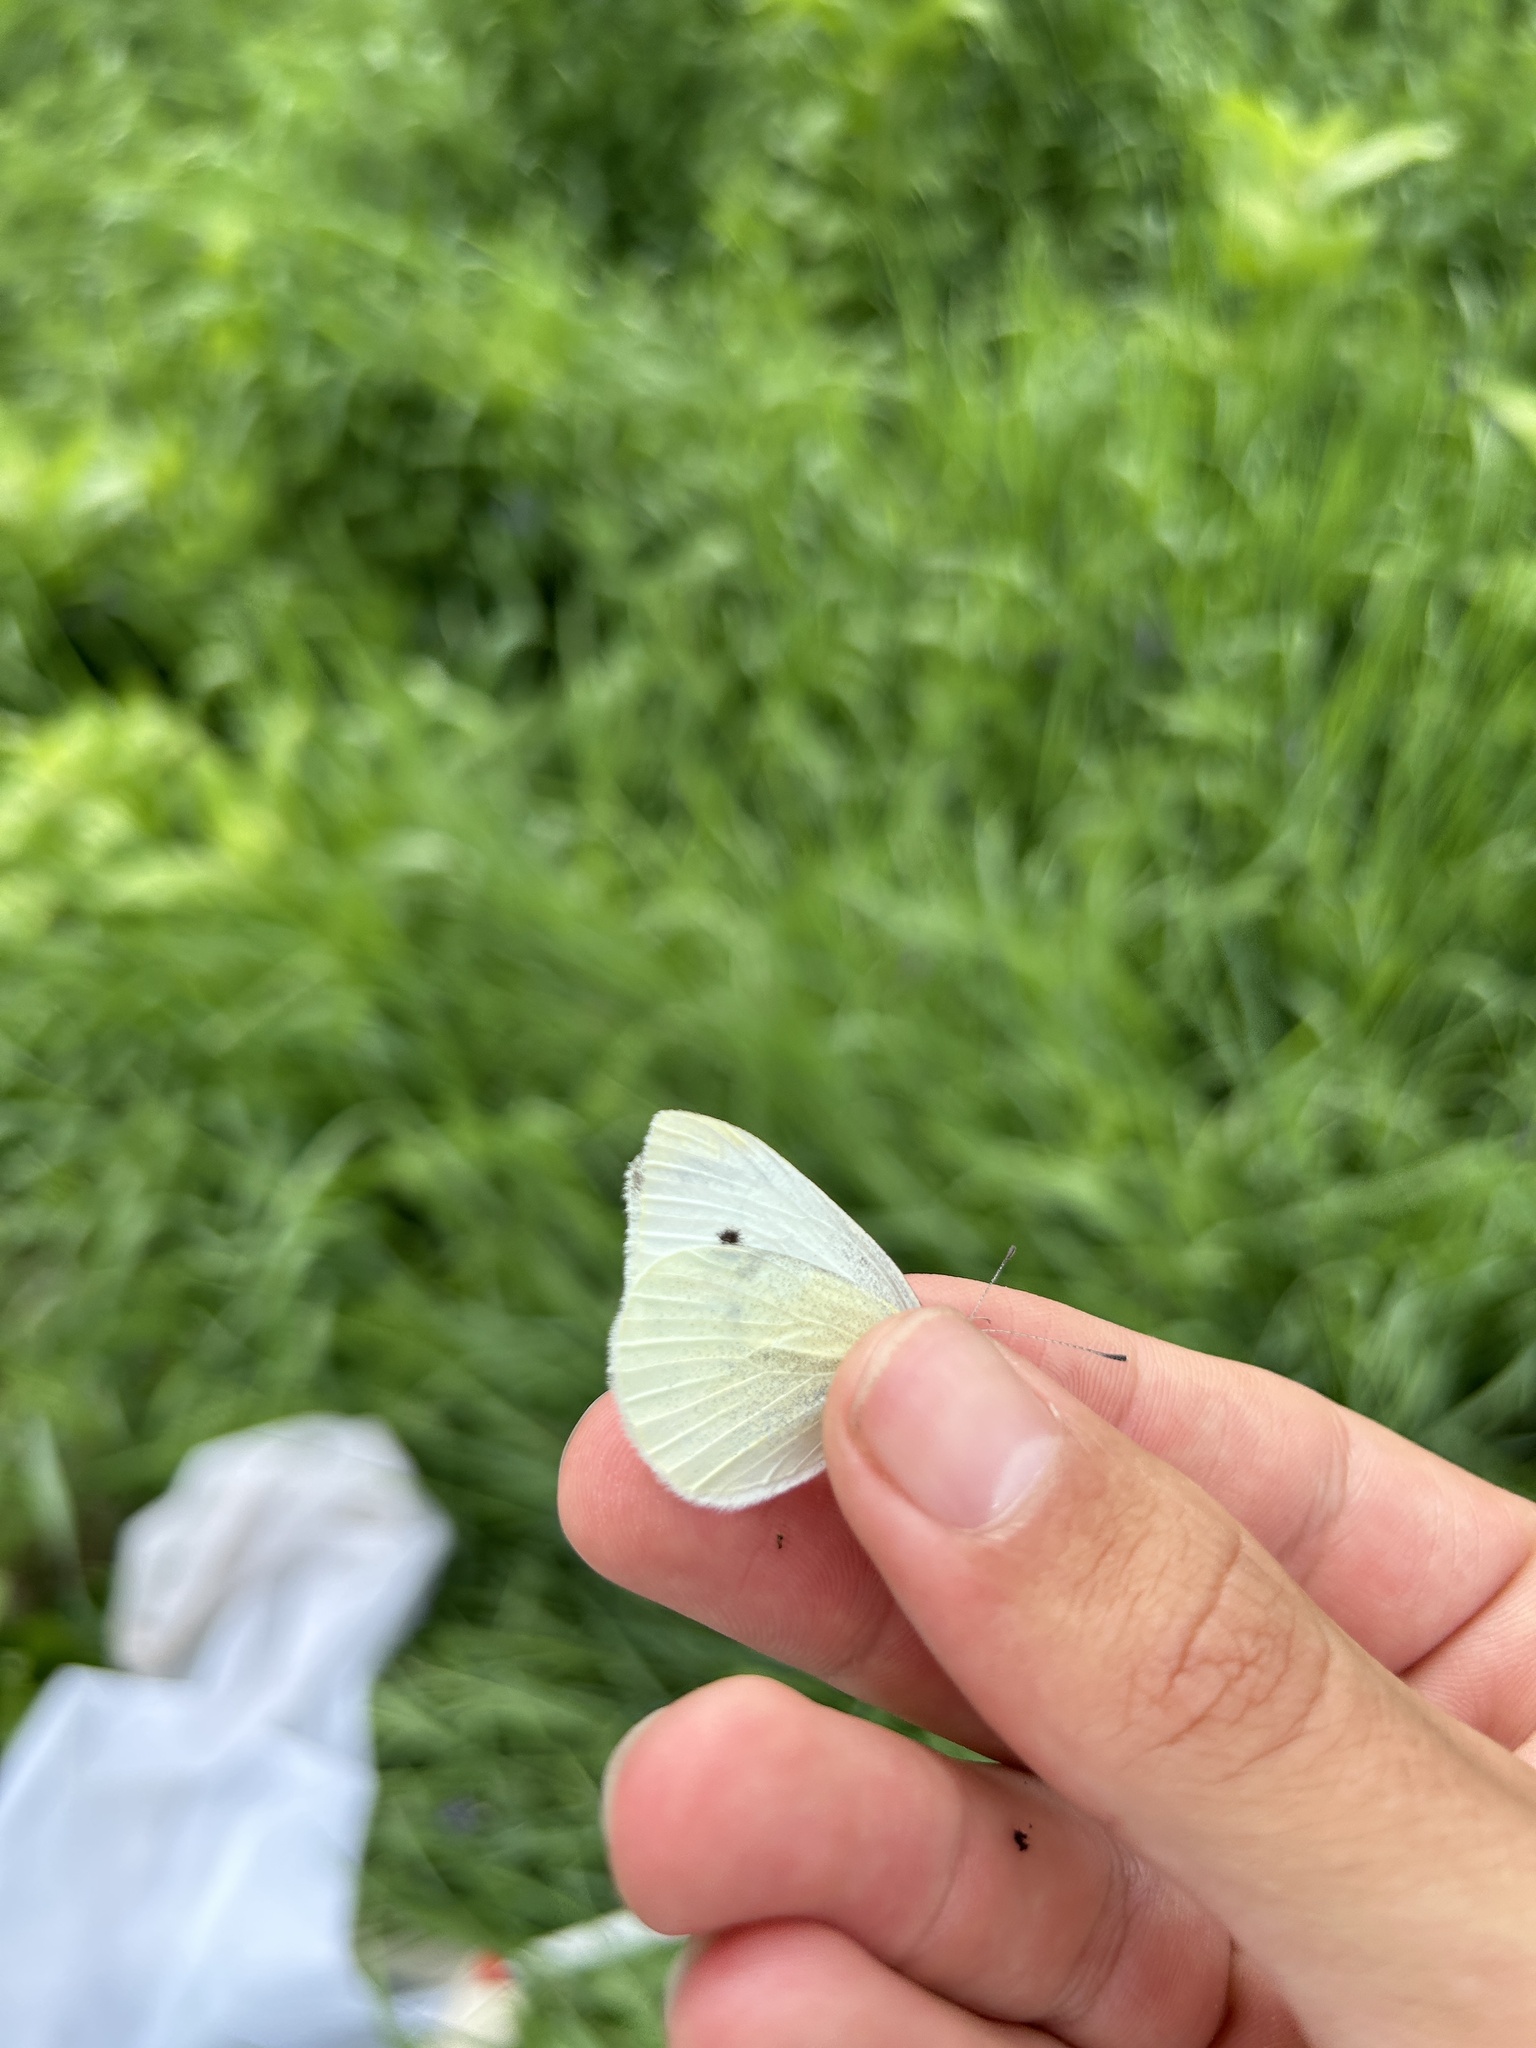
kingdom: Animalia
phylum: Arthropoda
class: Insecta
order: Lepidoptera
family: Pieridae
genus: Pieris
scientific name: Pieris rapae
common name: Small white
